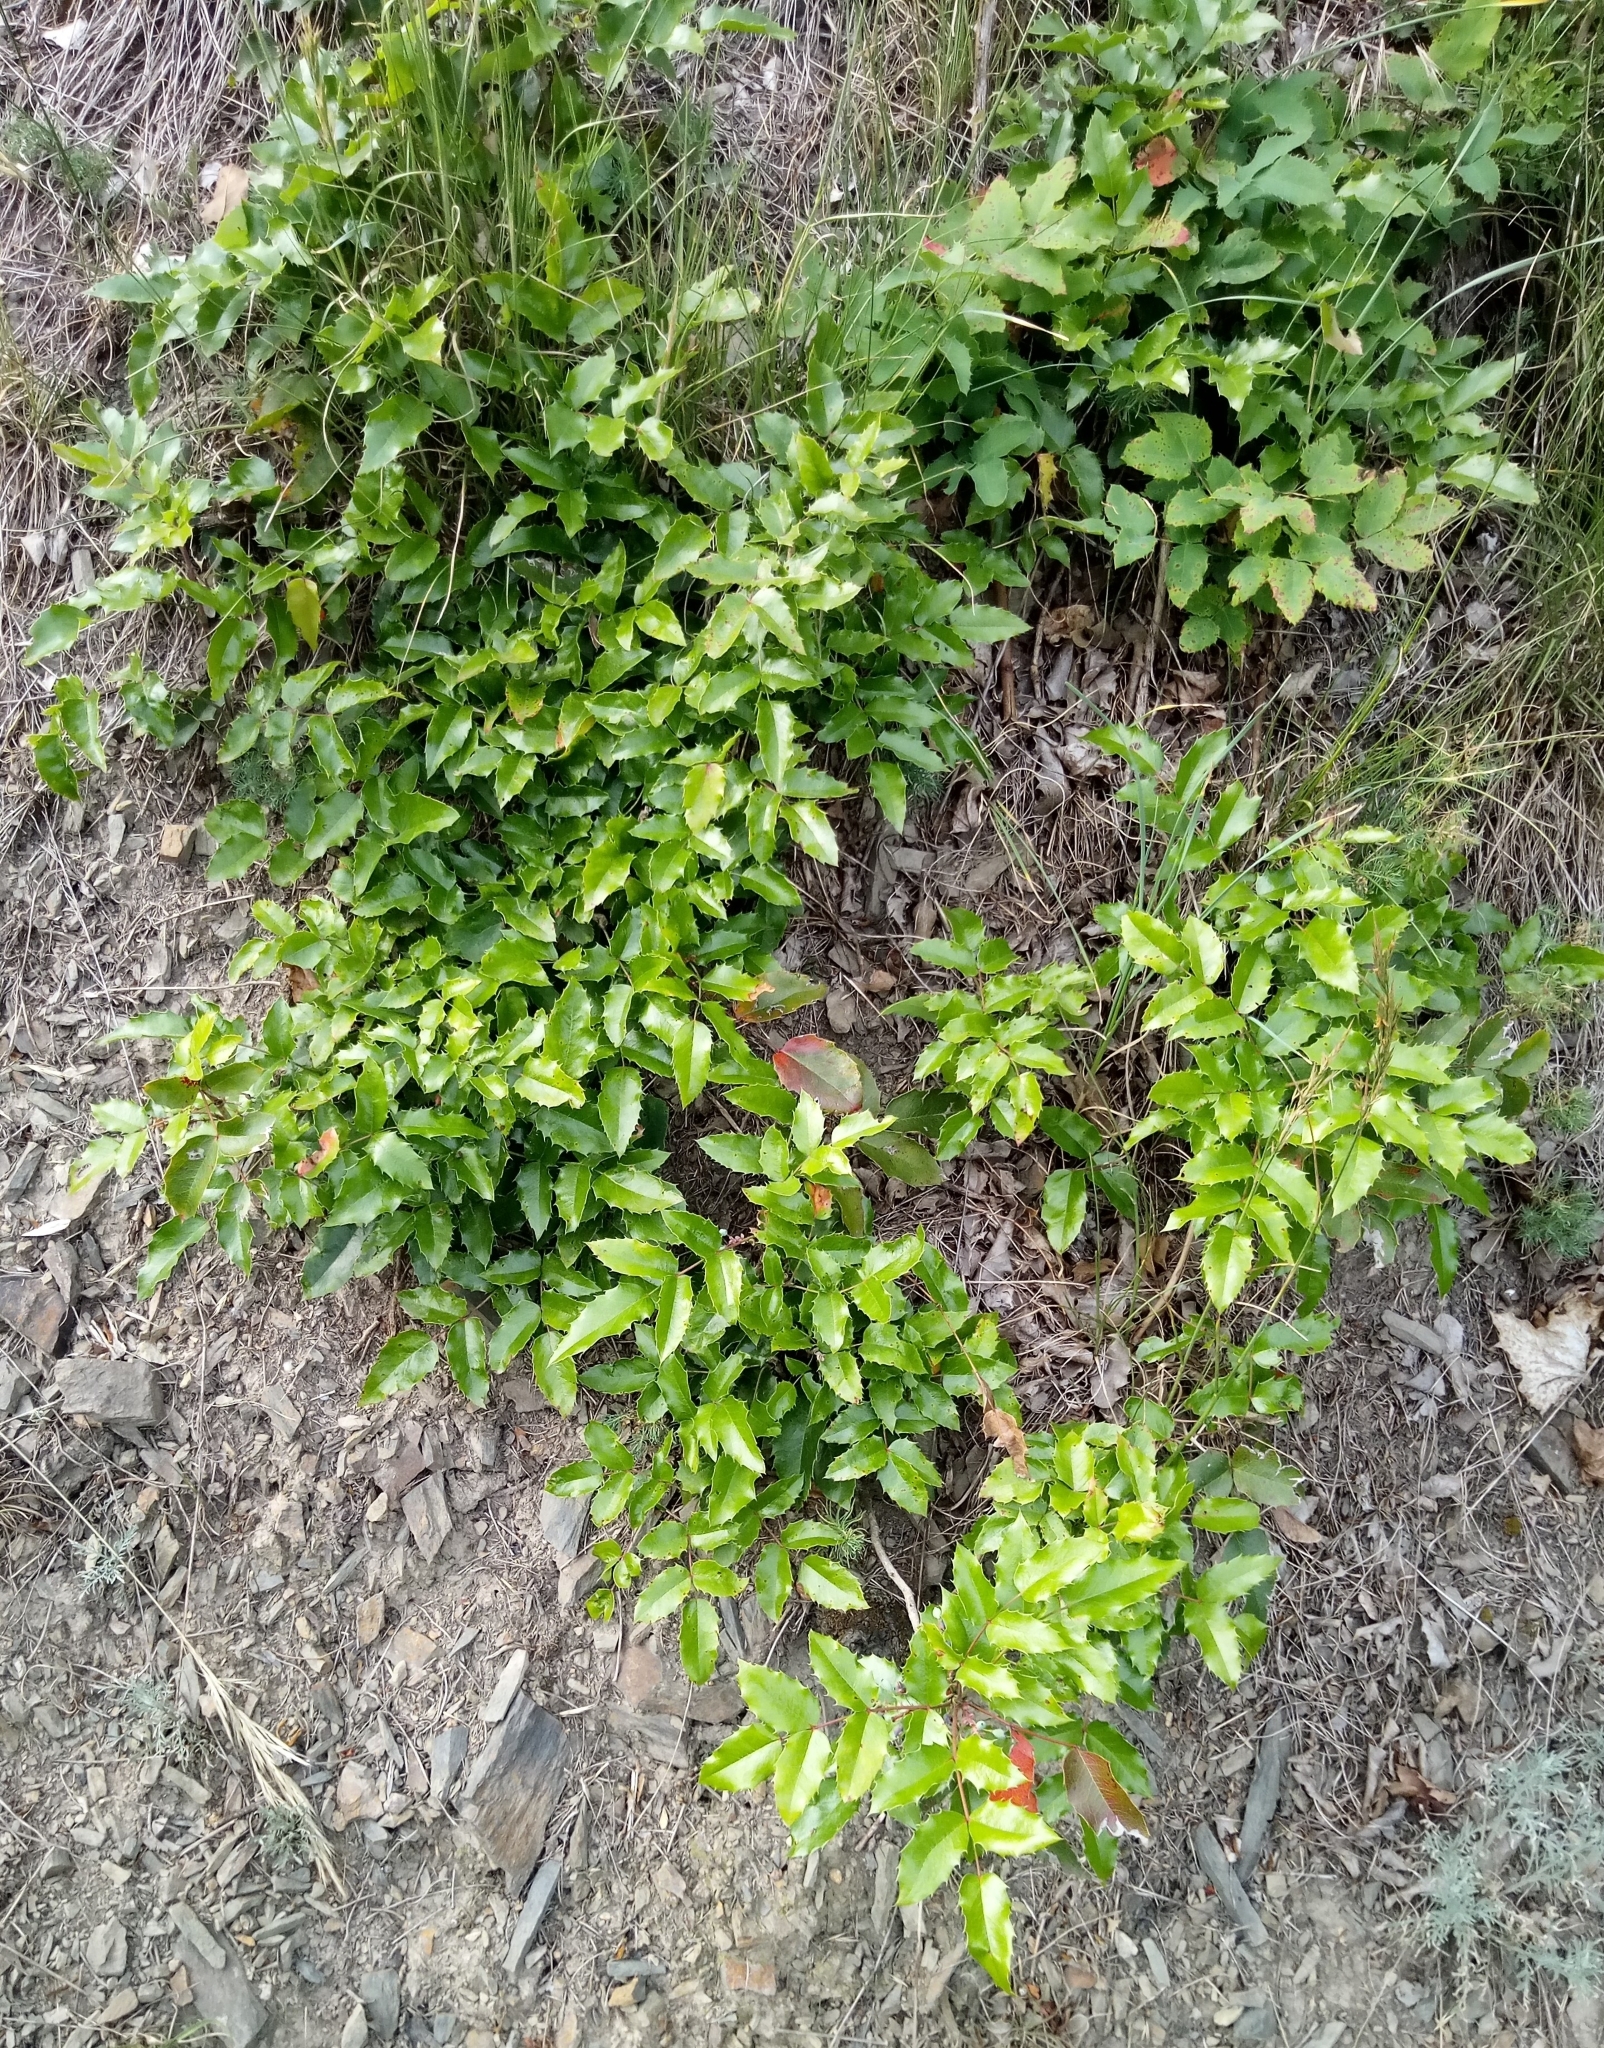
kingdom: Plantae
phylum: Tracheophyta
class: Magnoliopsida
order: Ranunculales
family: Berberidaceae
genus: Mahonia
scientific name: Mahonia aquifolium
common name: Oregon-grape
